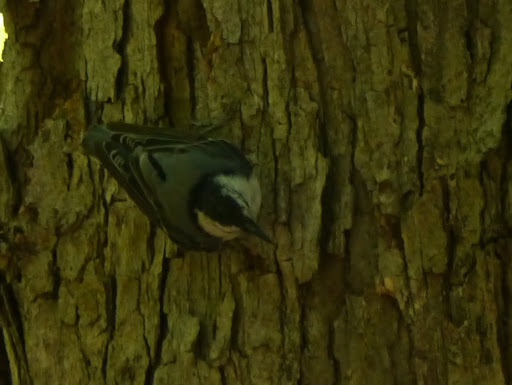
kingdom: Animalia
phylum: Chordata
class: Aves
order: Passeriformes
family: Sittidae
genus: Sitta
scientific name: Sitta carolinensis
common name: White-breasted nuthatch
